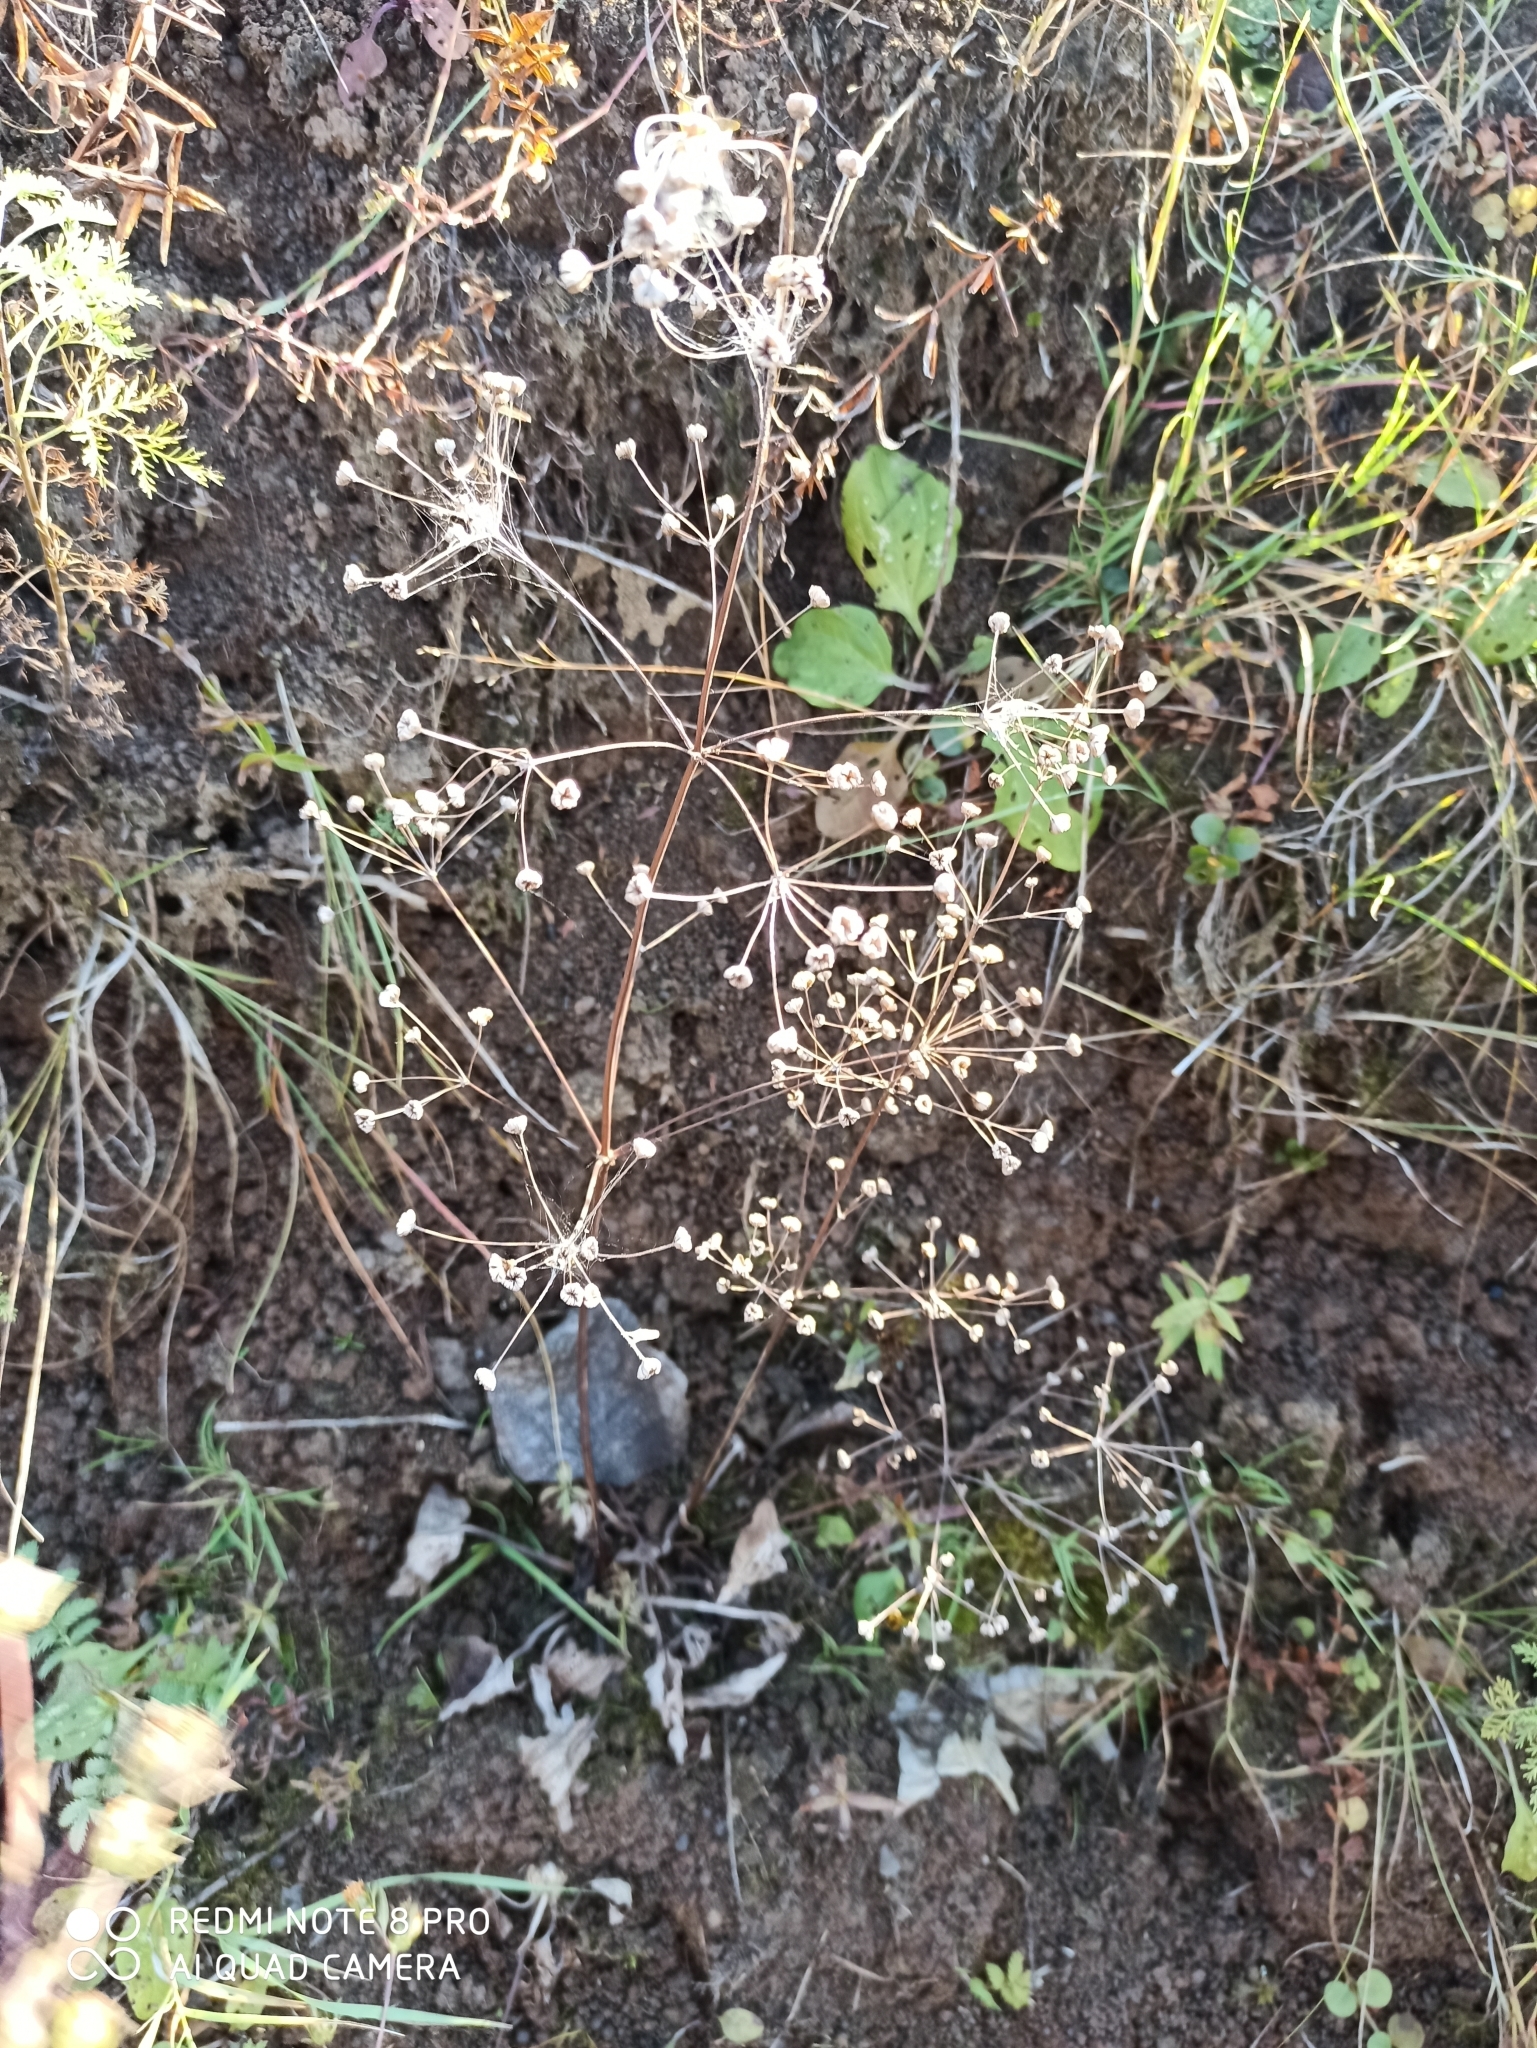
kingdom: Plantae
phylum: Tracheophyta
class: Liliopsida
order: Alismatales
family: Alismataceae
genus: Alisma
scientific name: Alisma plantago-aquatica
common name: Water-plantain
